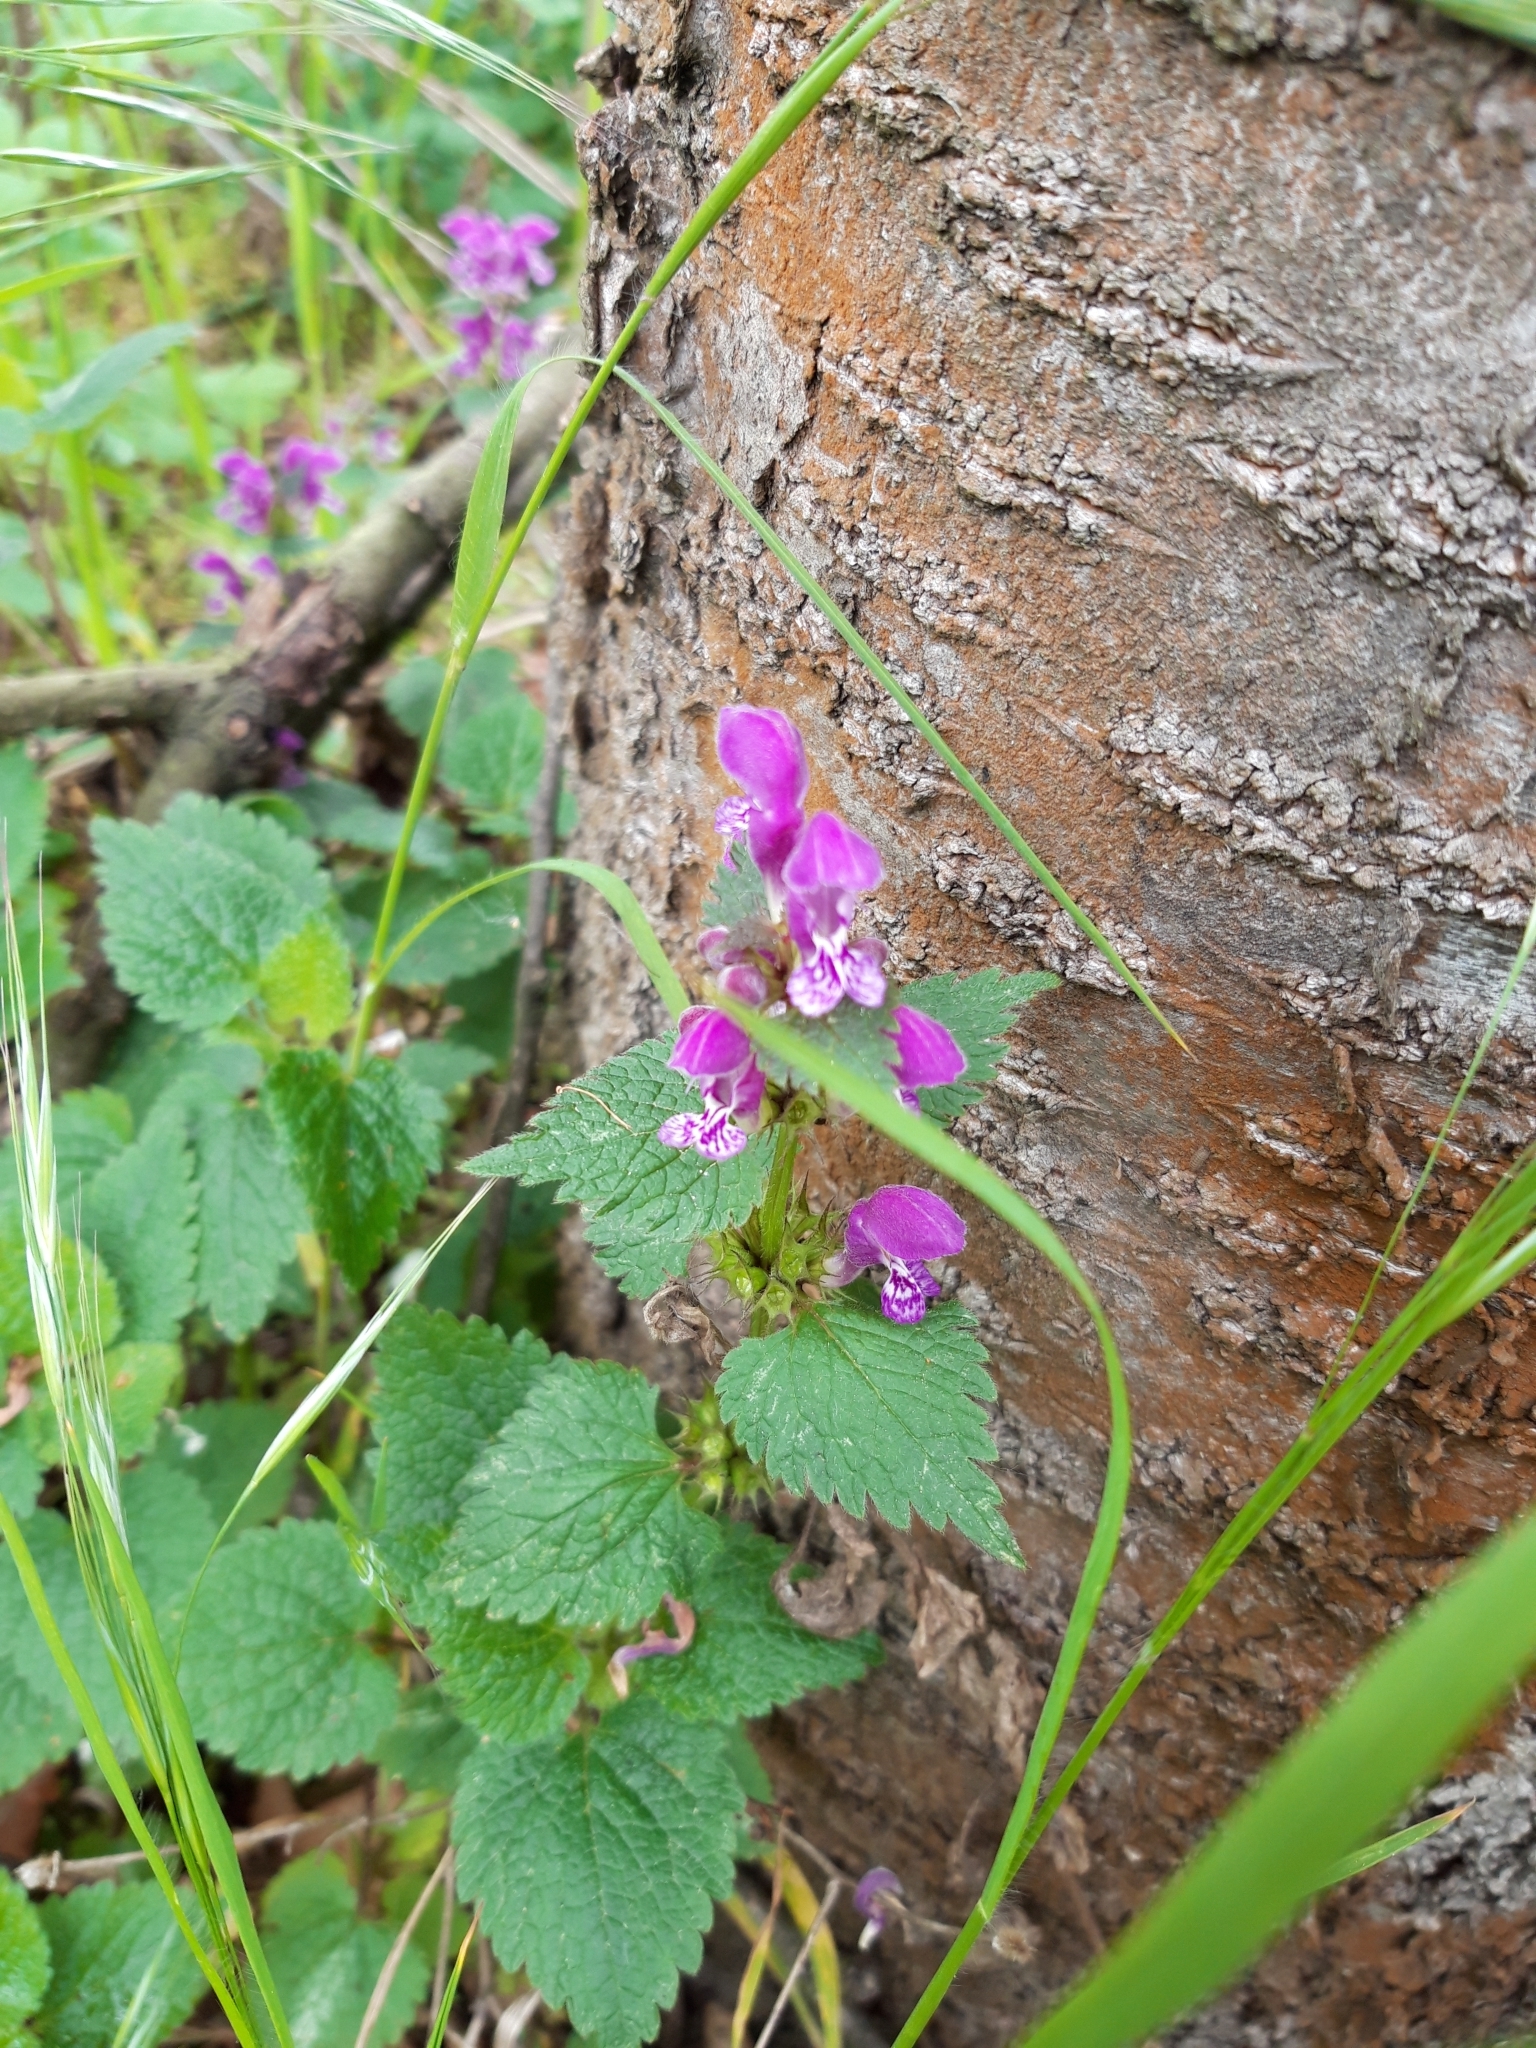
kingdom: Plantae
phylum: Tracheophyta
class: Magnoliopsida
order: Lamiales
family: Lamiaceae
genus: Lamium
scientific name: Lamium maculatum
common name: Spotted dead-nettle
